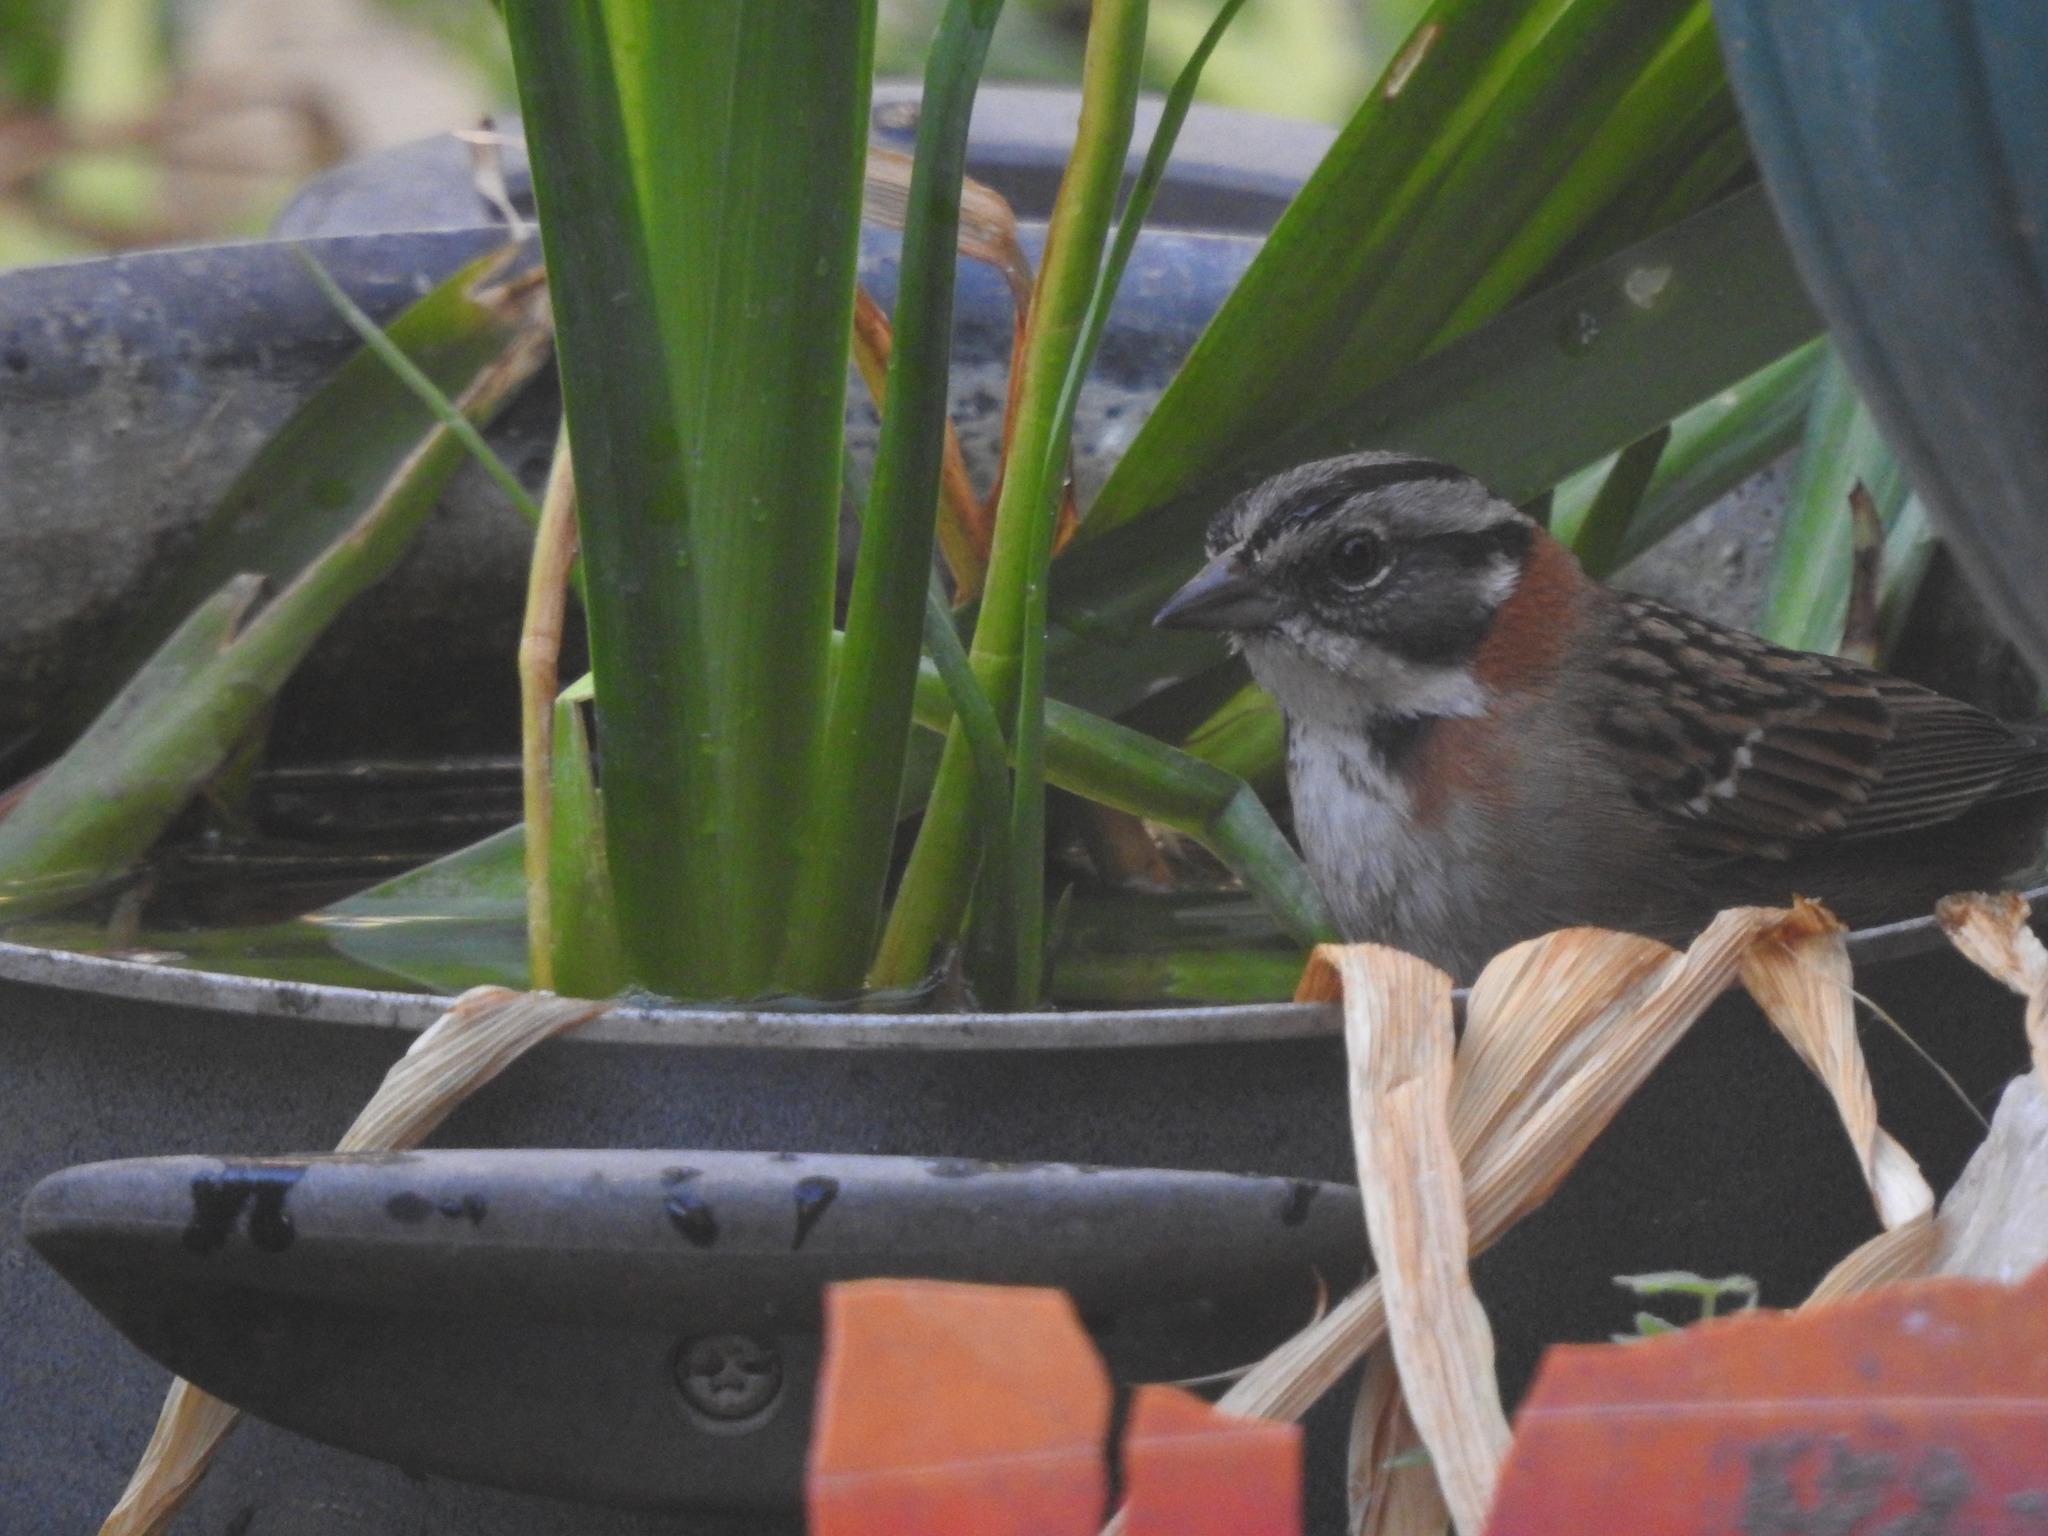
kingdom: Animalia
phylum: Chordata
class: Aves
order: Passeriformes
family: Passerellidae
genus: Zonotrichia
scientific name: Zonotrichia capensis
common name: Rufous-collared sparrow
